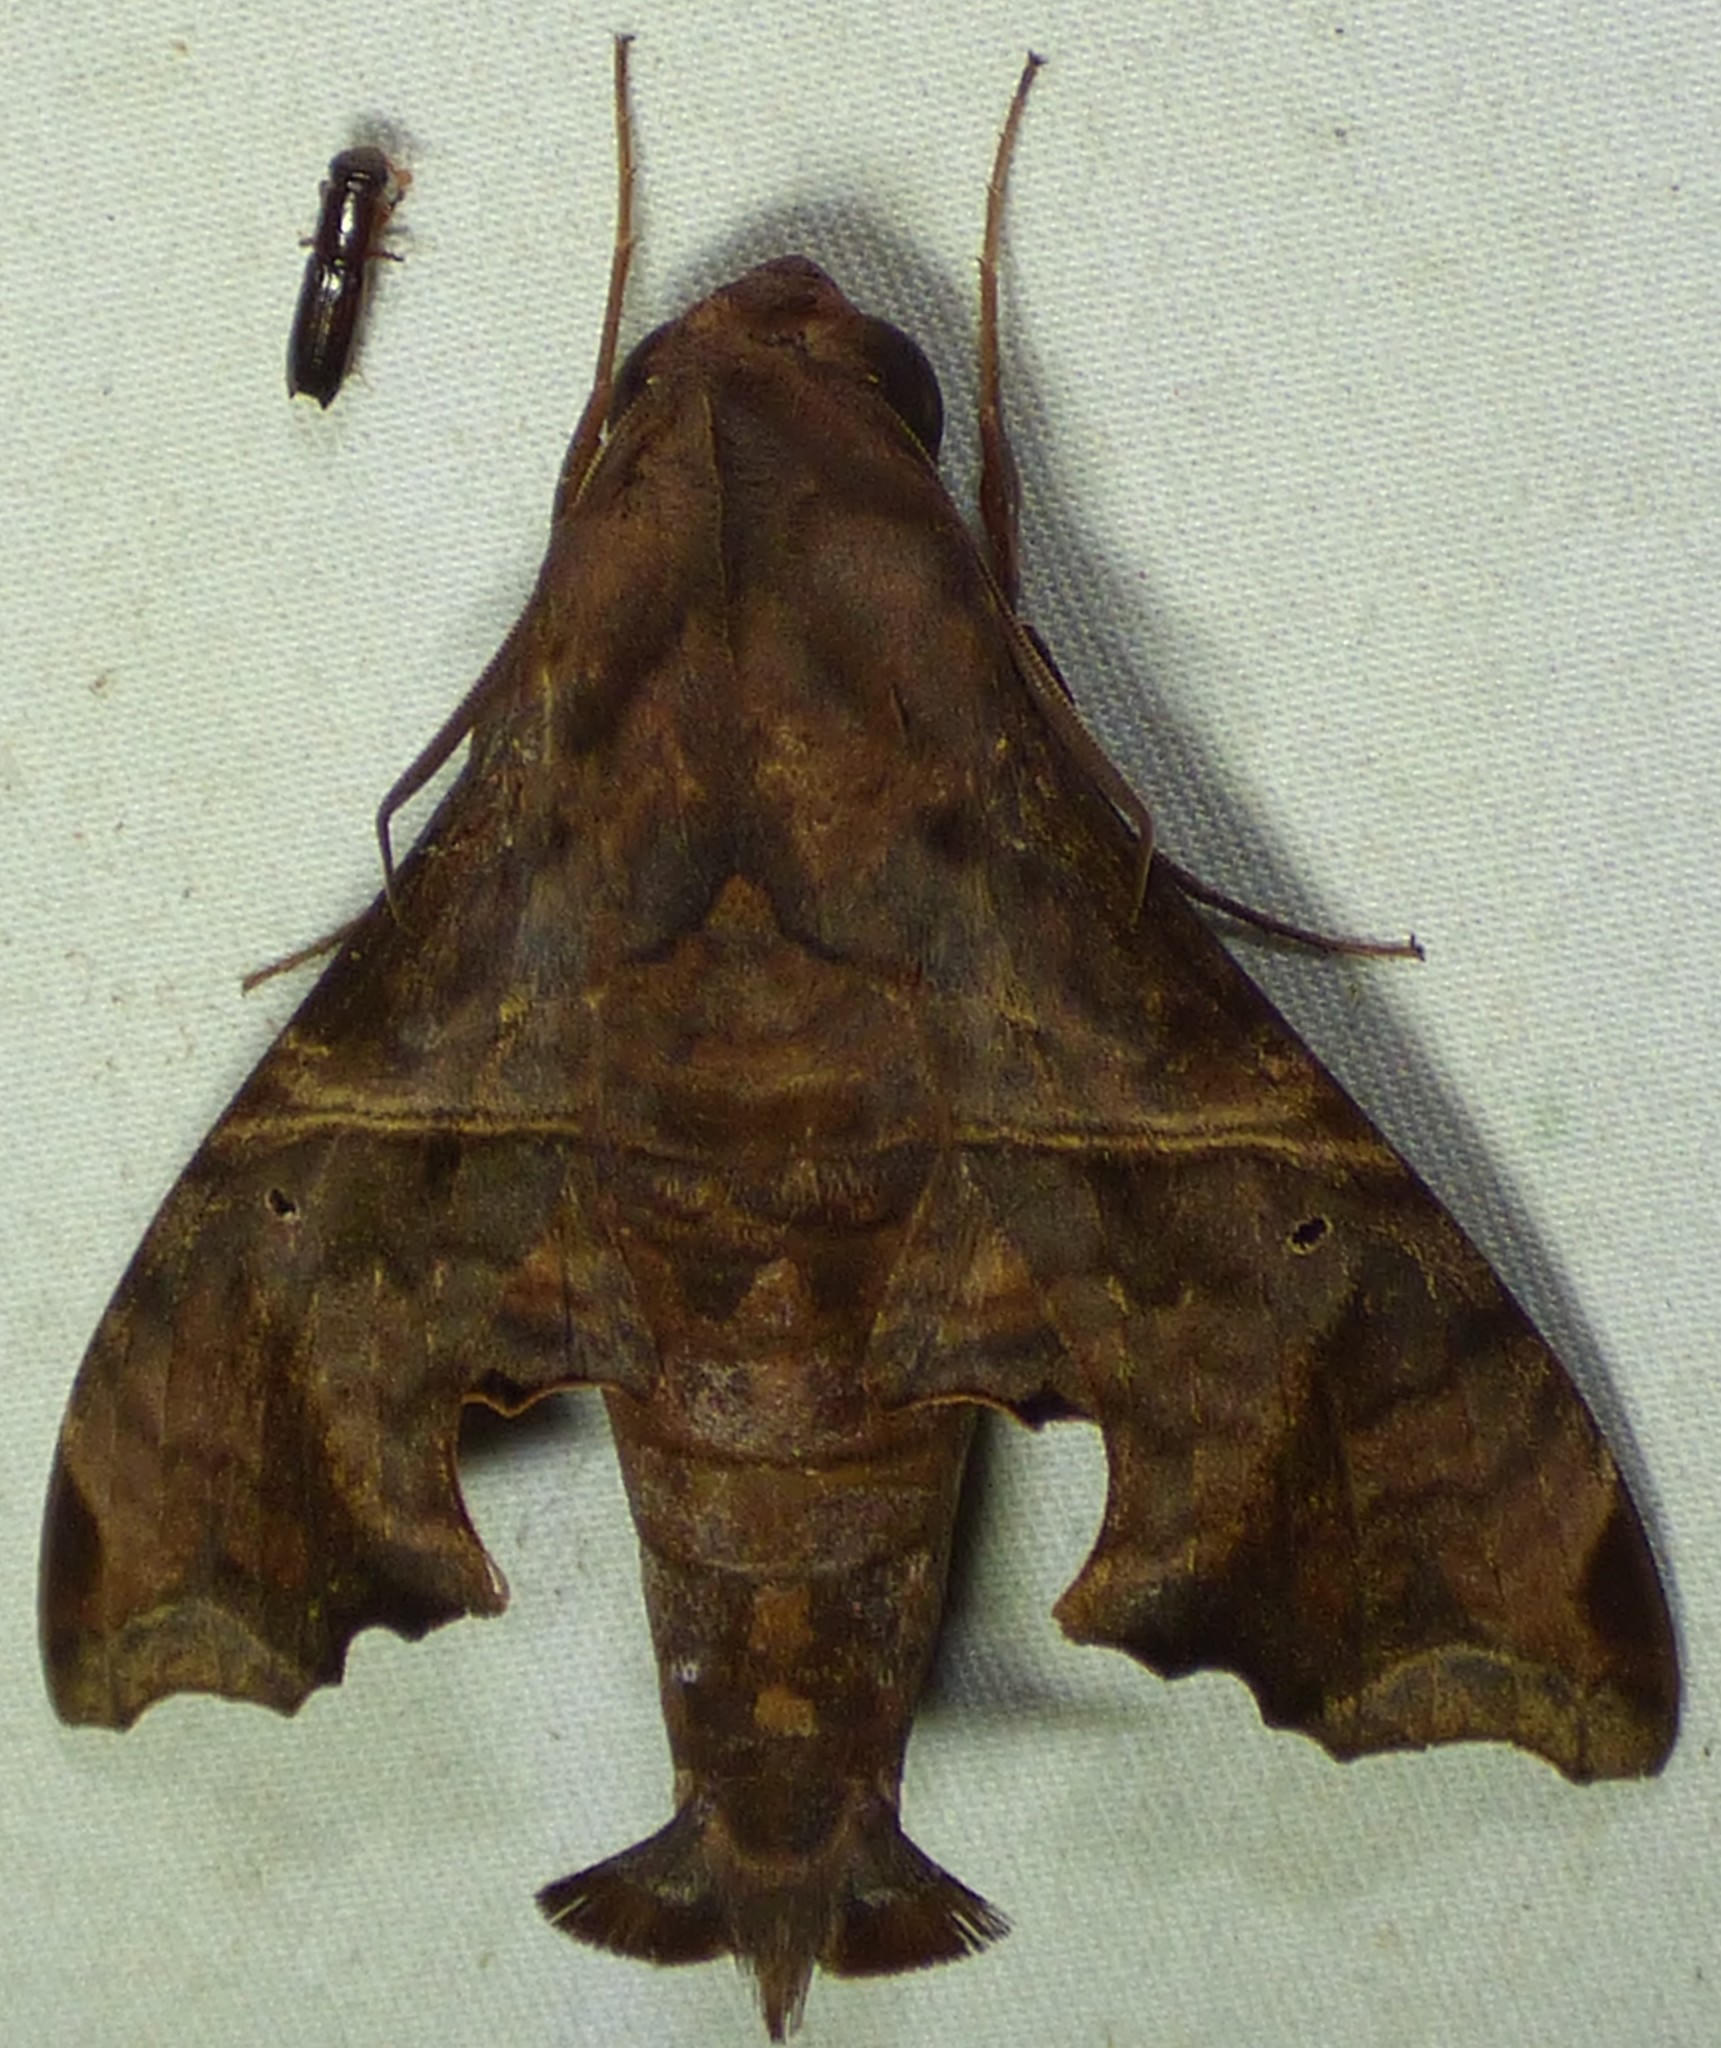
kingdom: Animalia
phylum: Arthropoda
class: Insecta
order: Lepidoptera
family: Sphingidae
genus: Enyo
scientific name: Enyo lugubris
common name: Mournful sphinx
